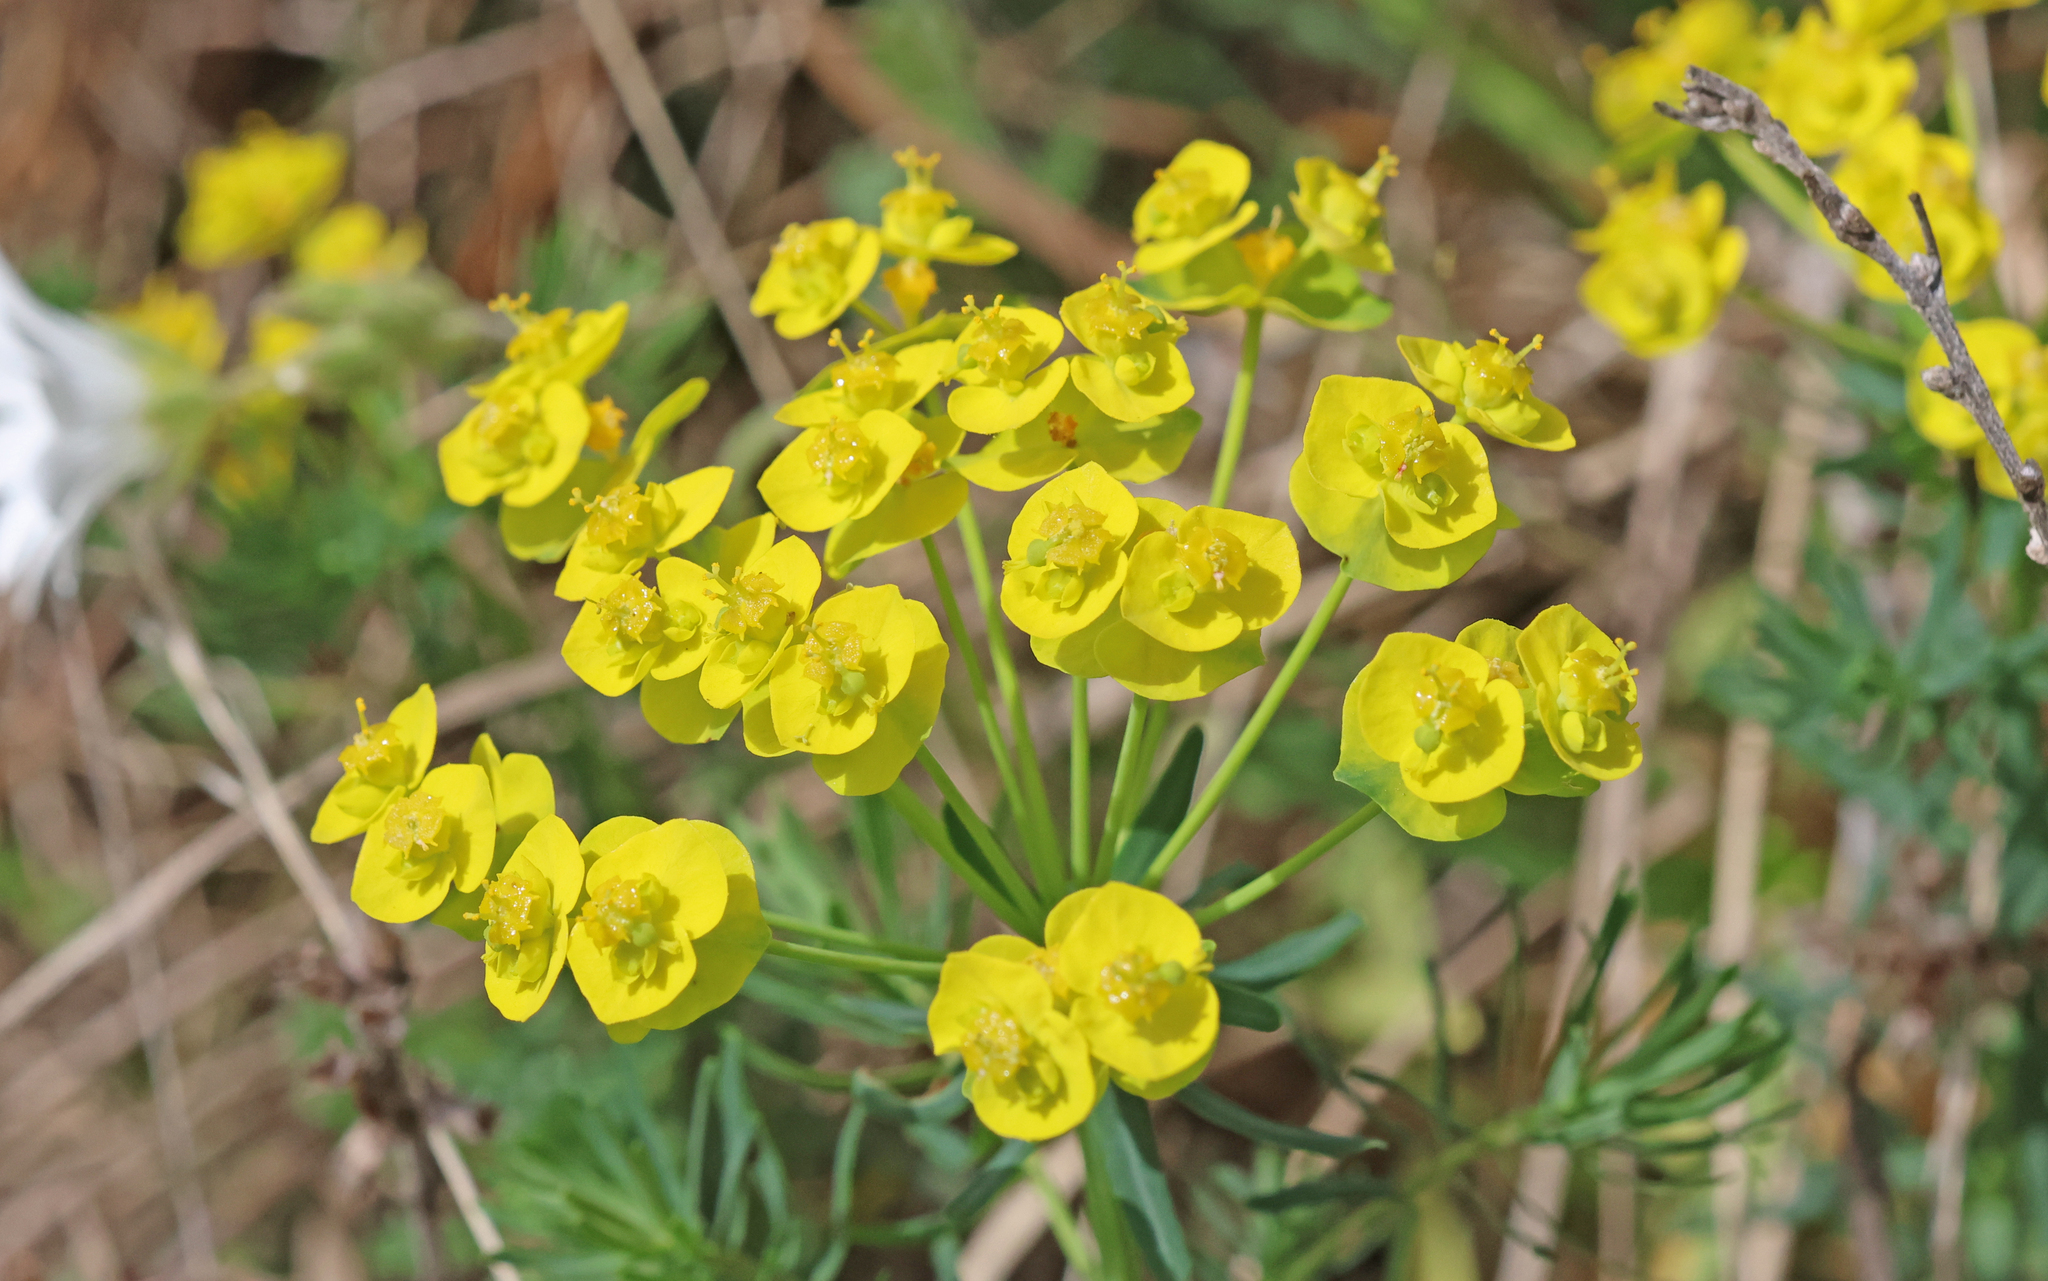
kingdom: Plantae
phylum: Tracheophyta
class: Magnoliopsida
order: Malpighiales
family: Euphorbiaceae
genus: Euphorbia
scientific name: Euphorbia cyparissias
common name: Cypress spurge
